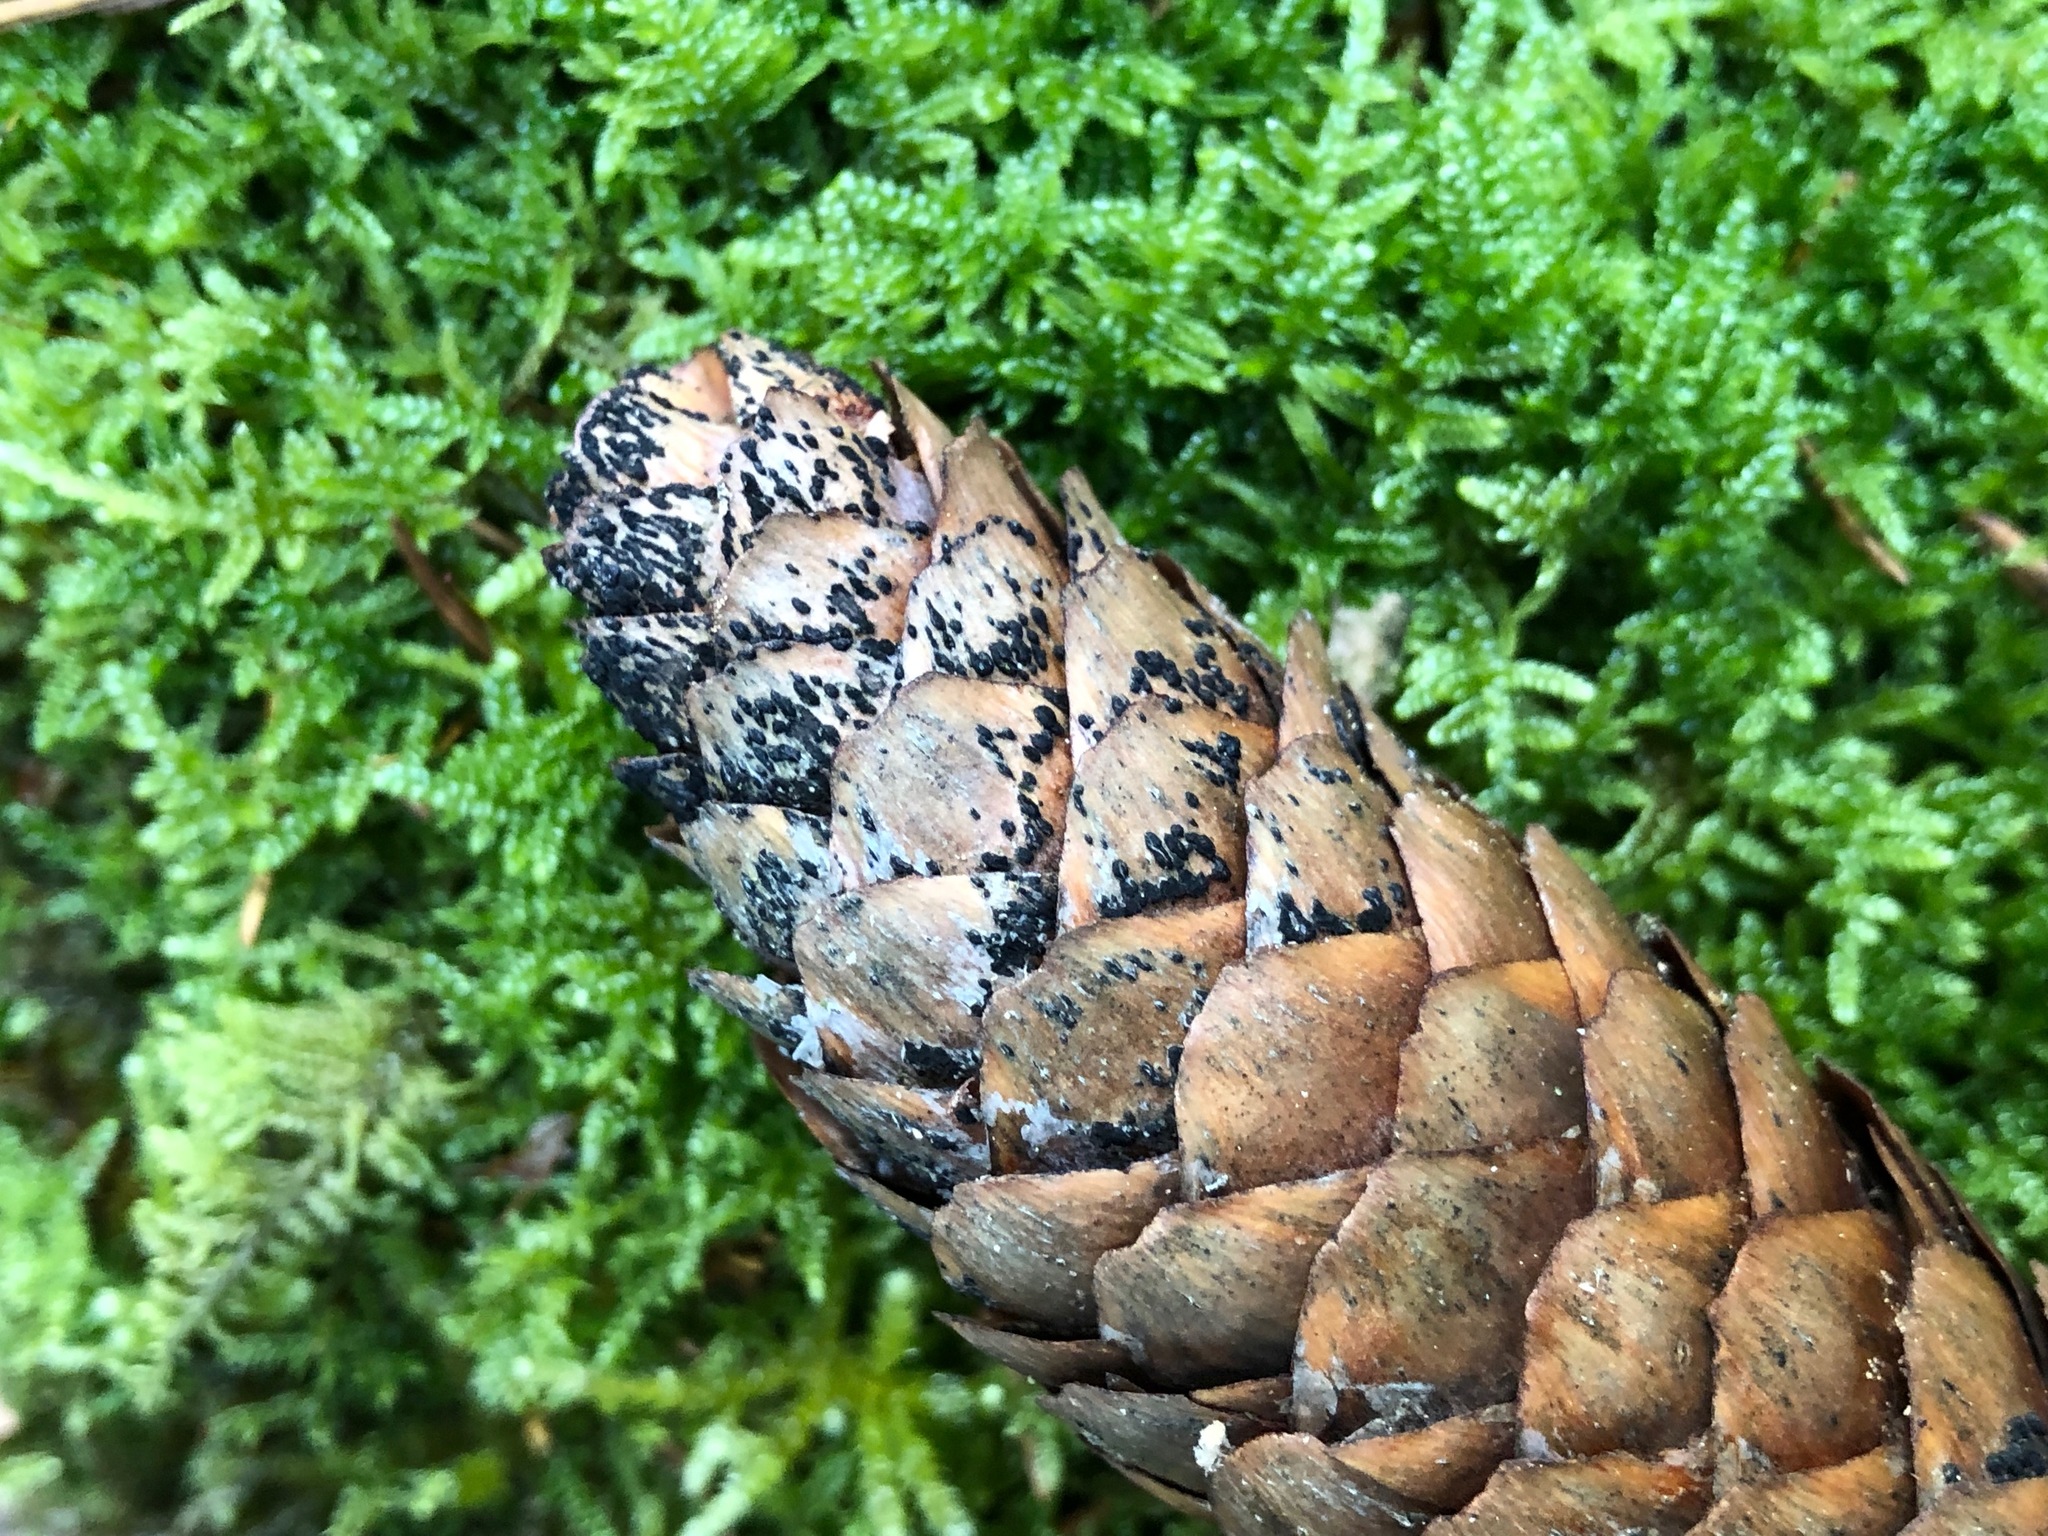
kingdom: Fungi
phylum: Ascomycota
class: Dothideomycetes
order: Pleosporales
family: Melanommataceae
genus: Phragmotrichum
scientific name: Phragmotrichum chailletii
